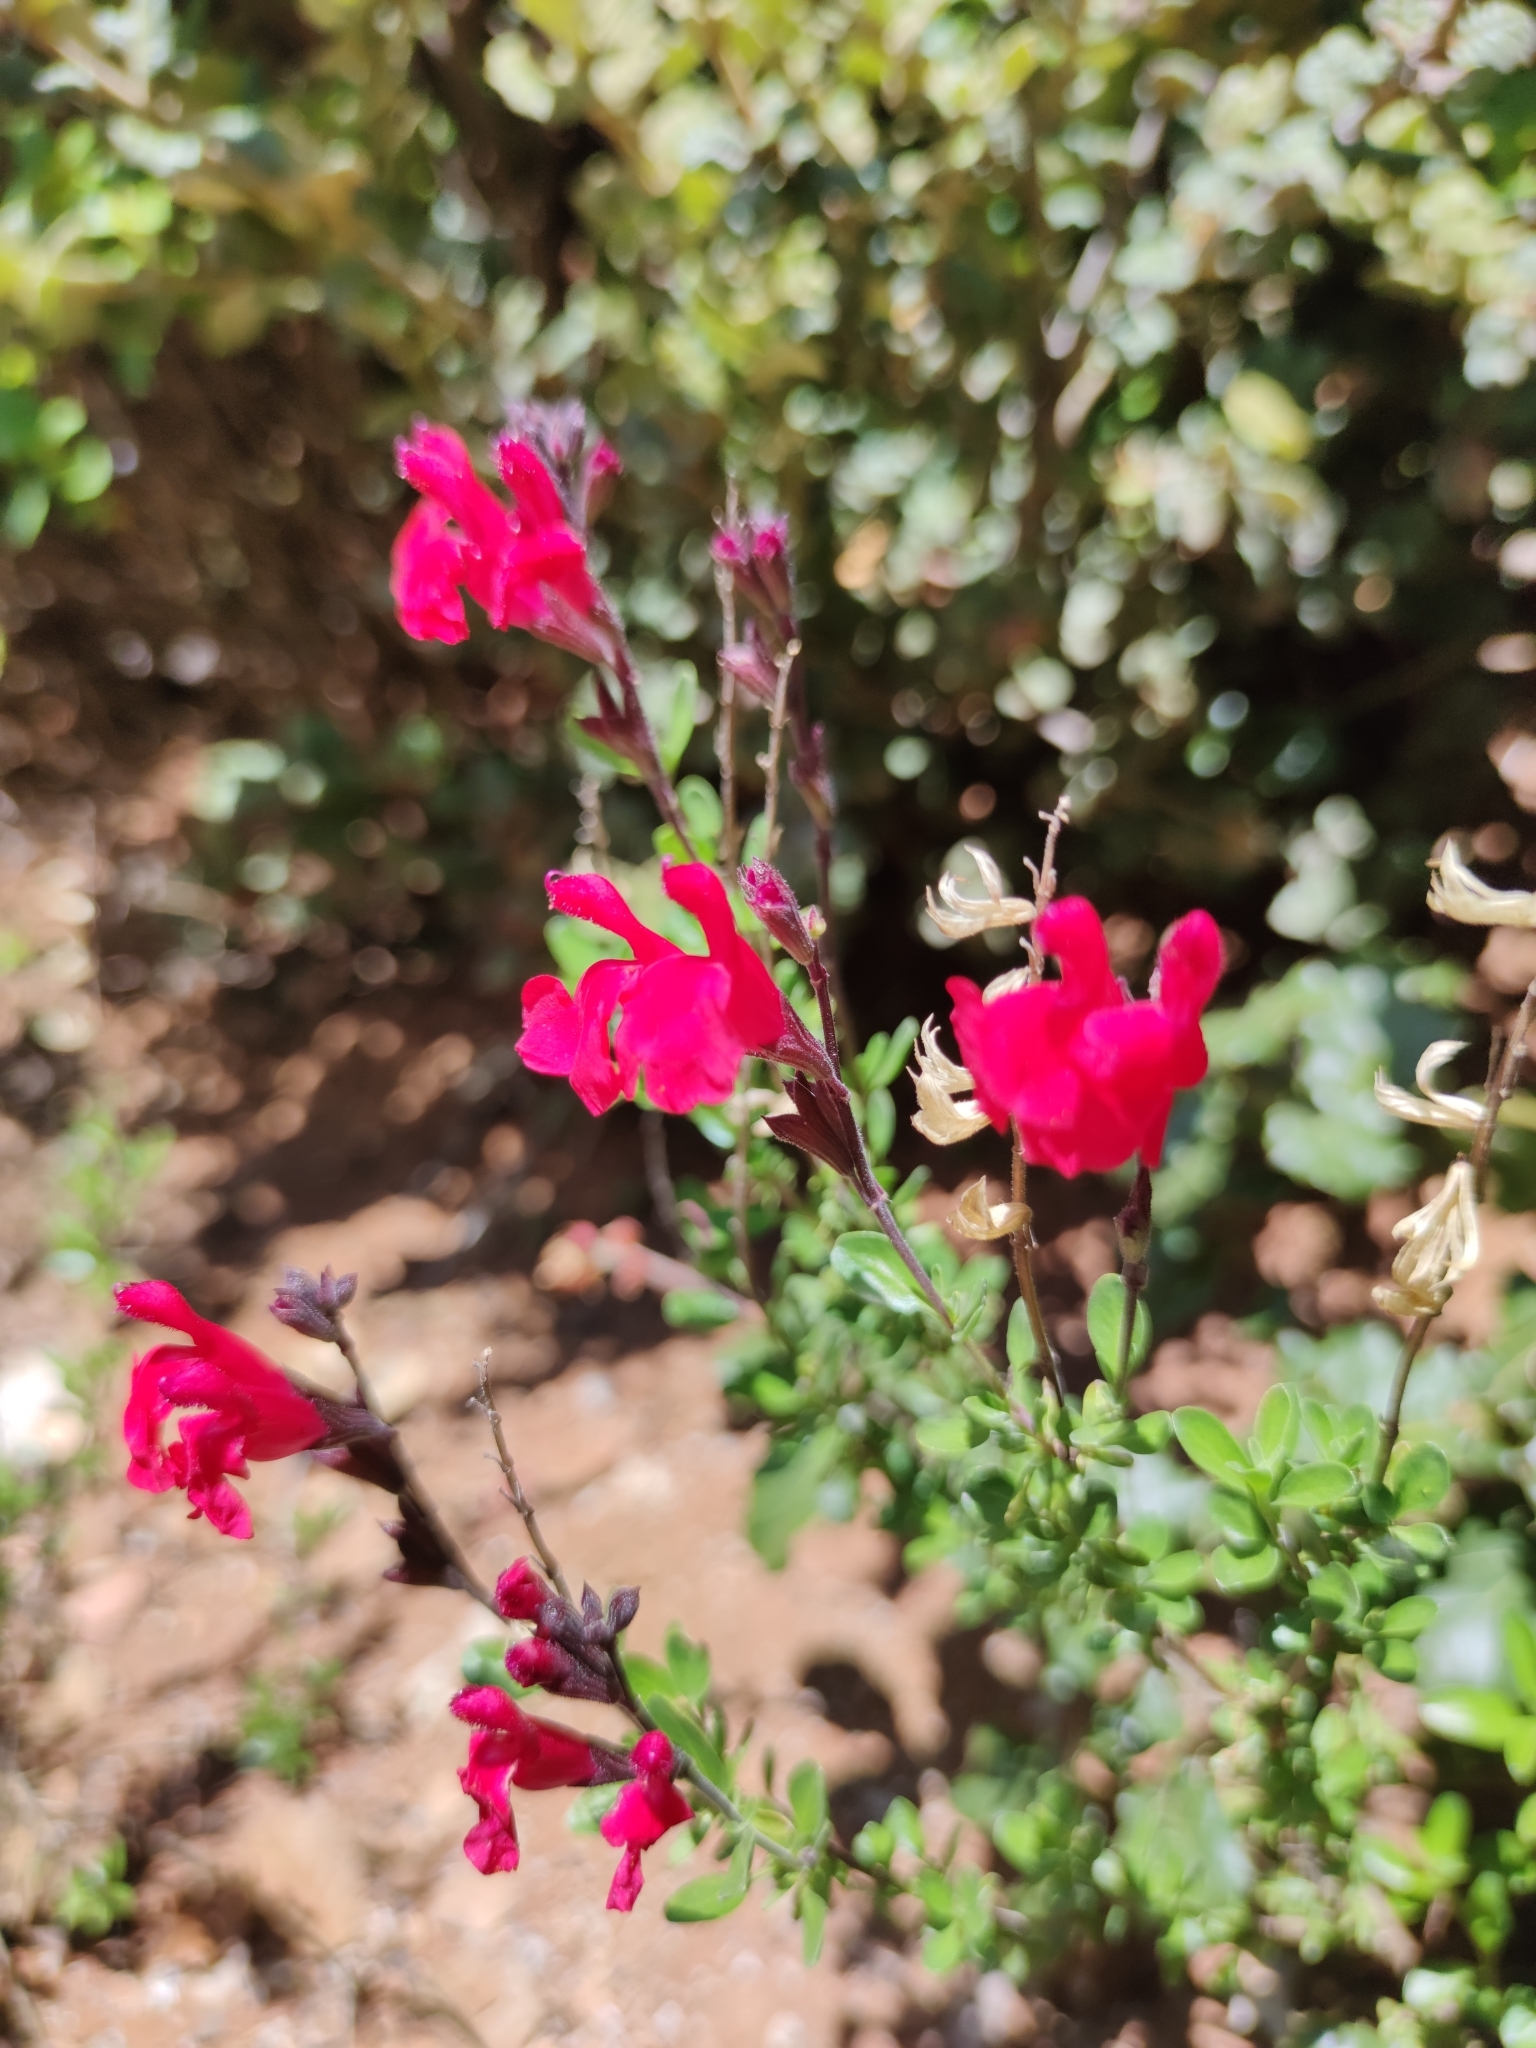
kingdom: Plantae
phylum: Tracheophyta
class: Magnoliopsida
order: Lamiales
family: Lamiaceae
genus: Salvia
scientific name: Salvia greggii
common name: Autumn sage
